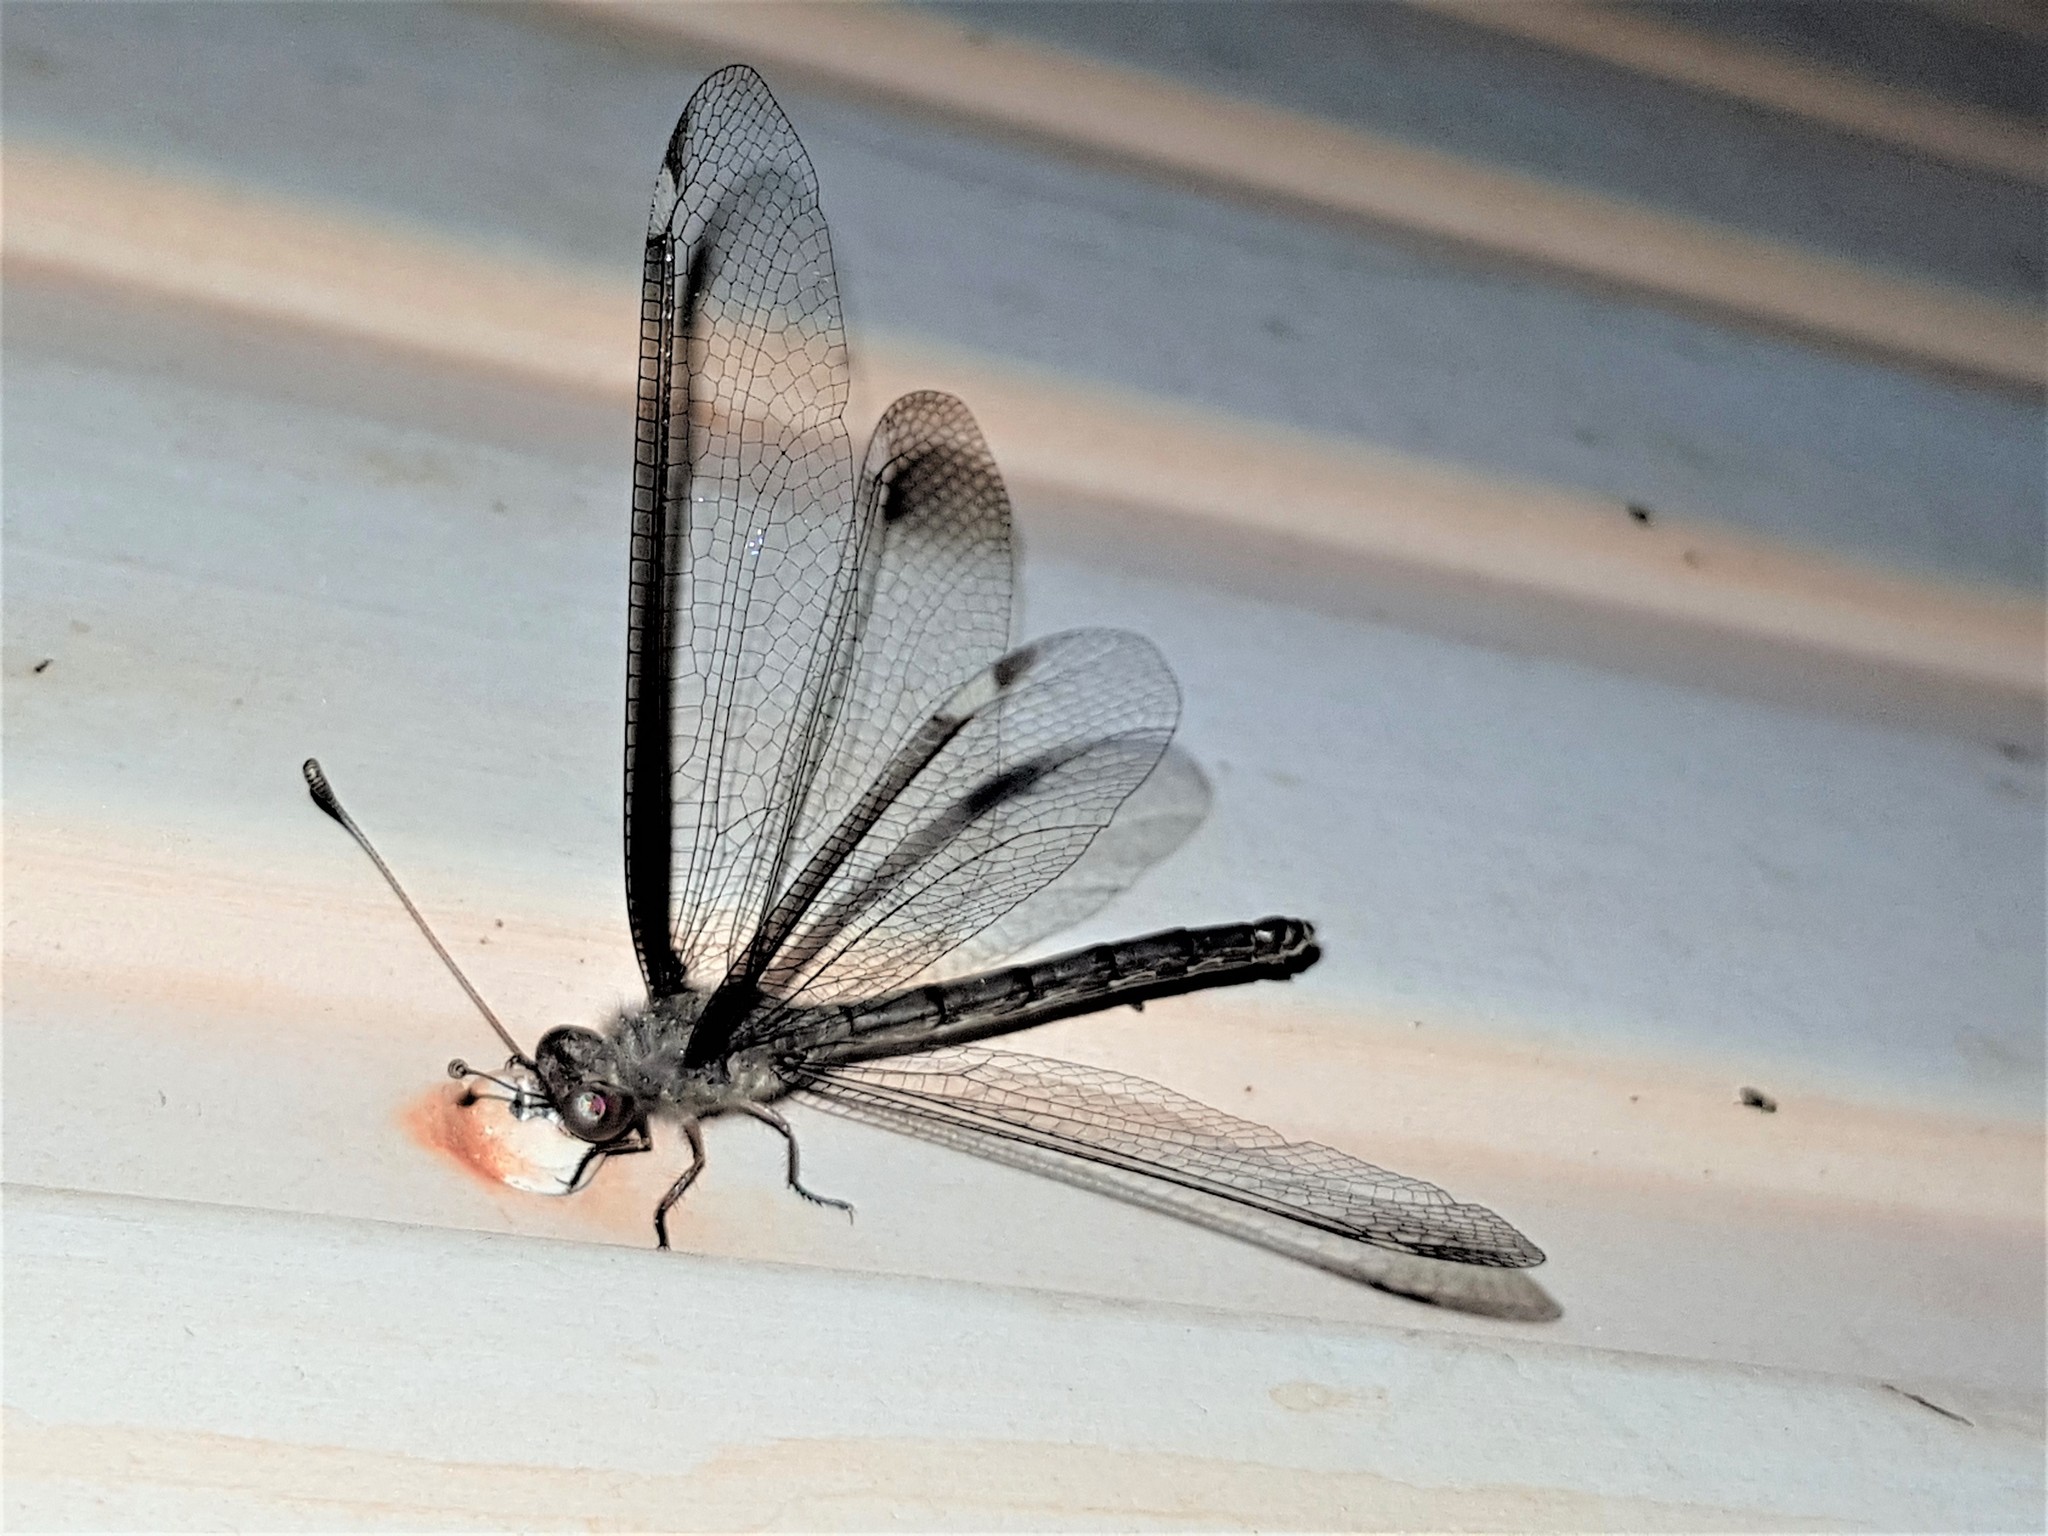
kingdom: Animalia
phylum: Arthropoda
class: Insecta
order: Neuroptera
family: Ascalaphidae
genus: Ascalobyas
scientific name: Ascalobyas albistigma
